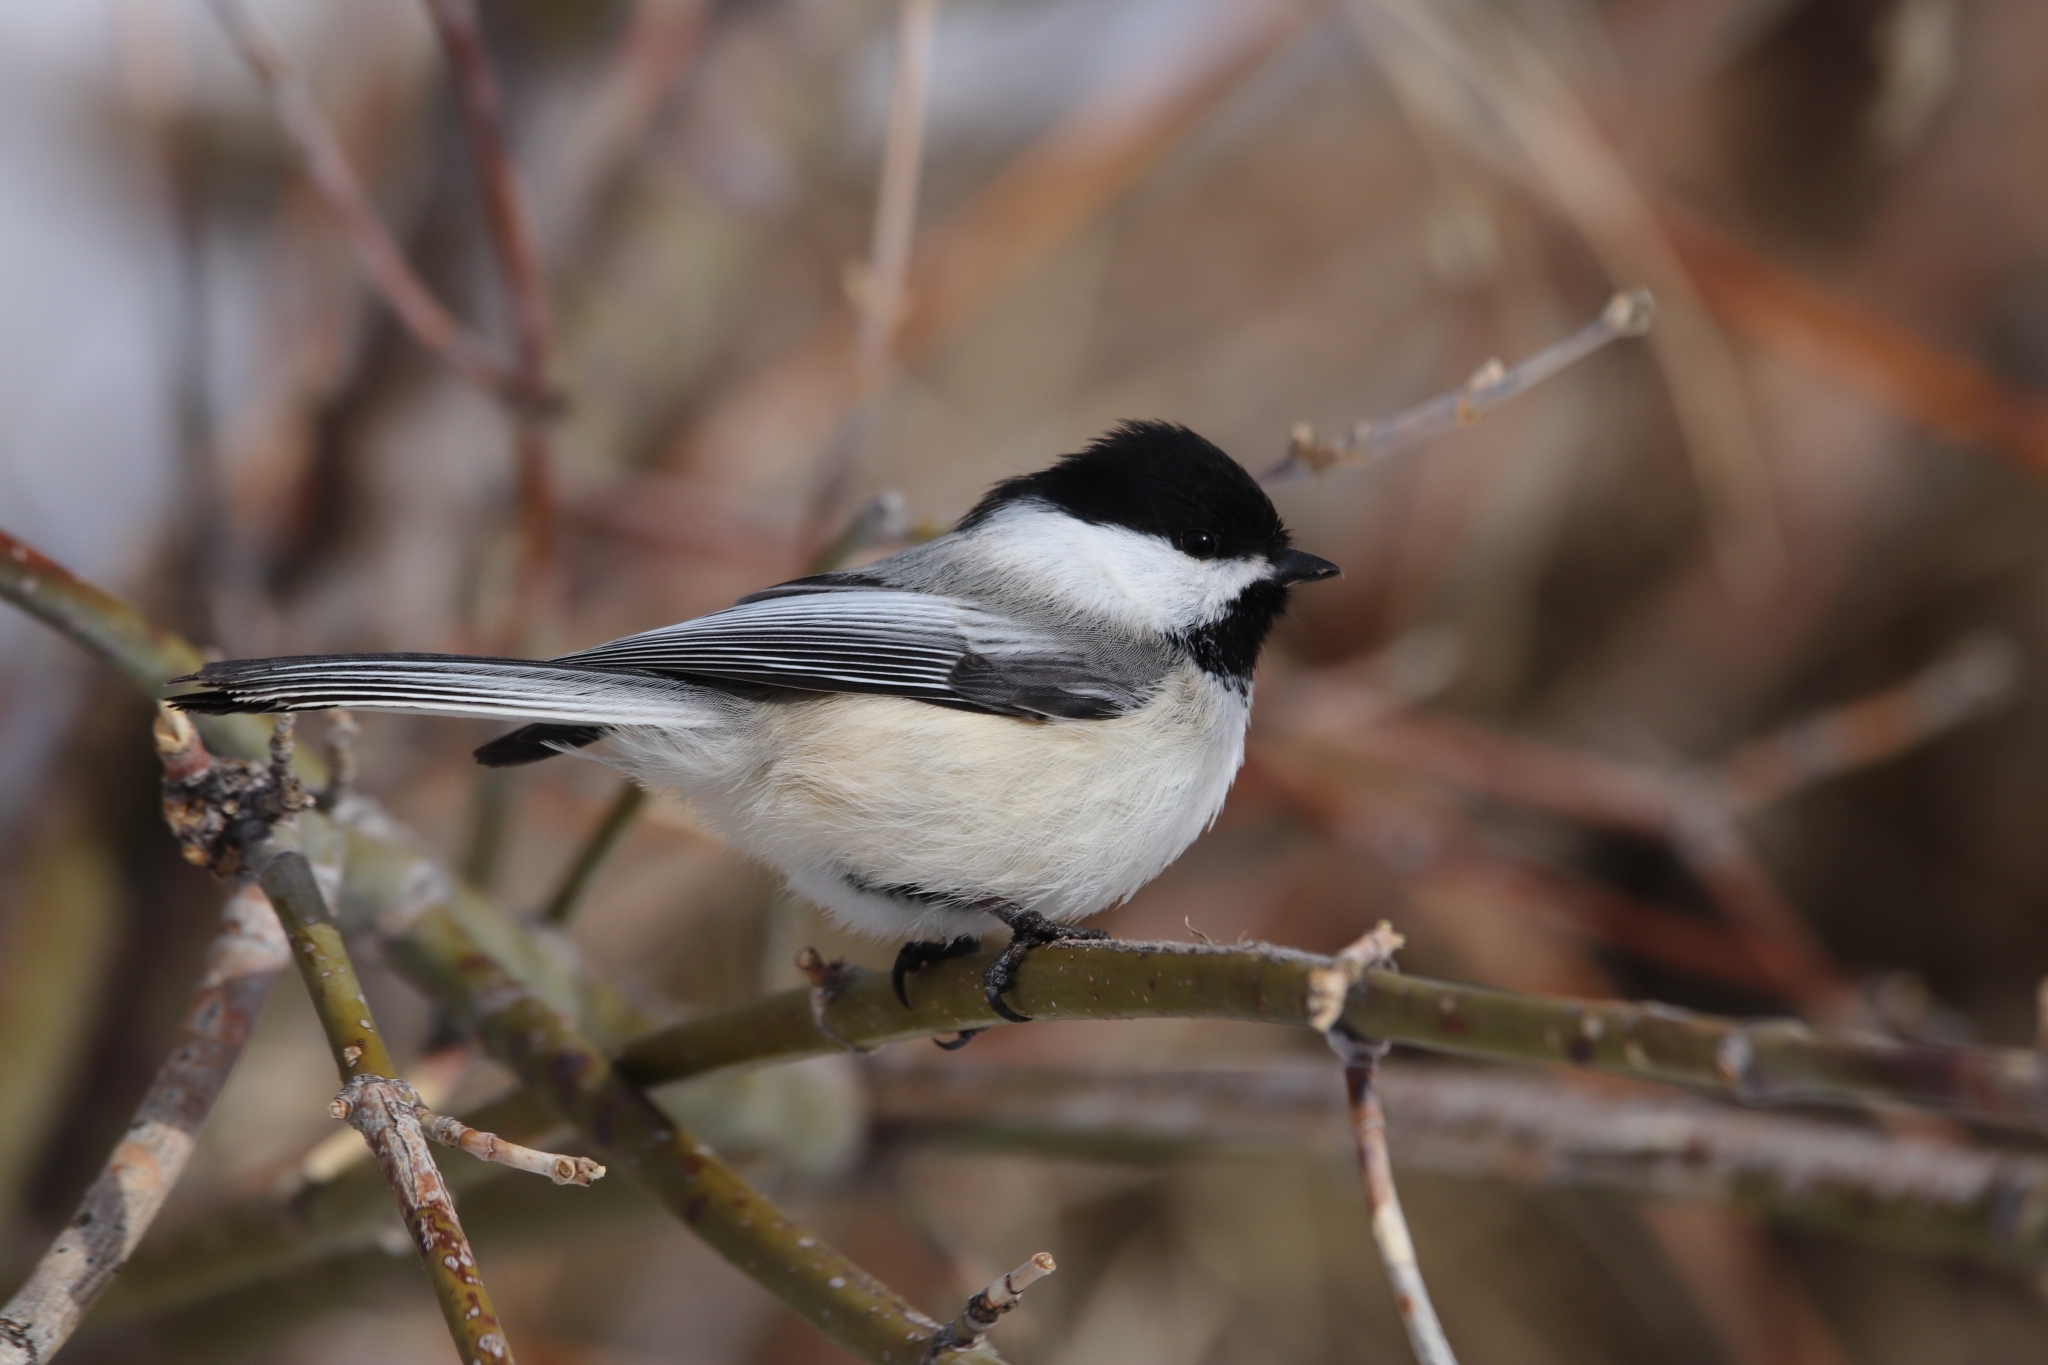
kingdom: Animalia
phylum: Chordata
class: Aves
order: Passeriformes
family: Paridae
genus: Poecile
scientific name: Poecile atricapillus
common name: Black-capped chickadee
